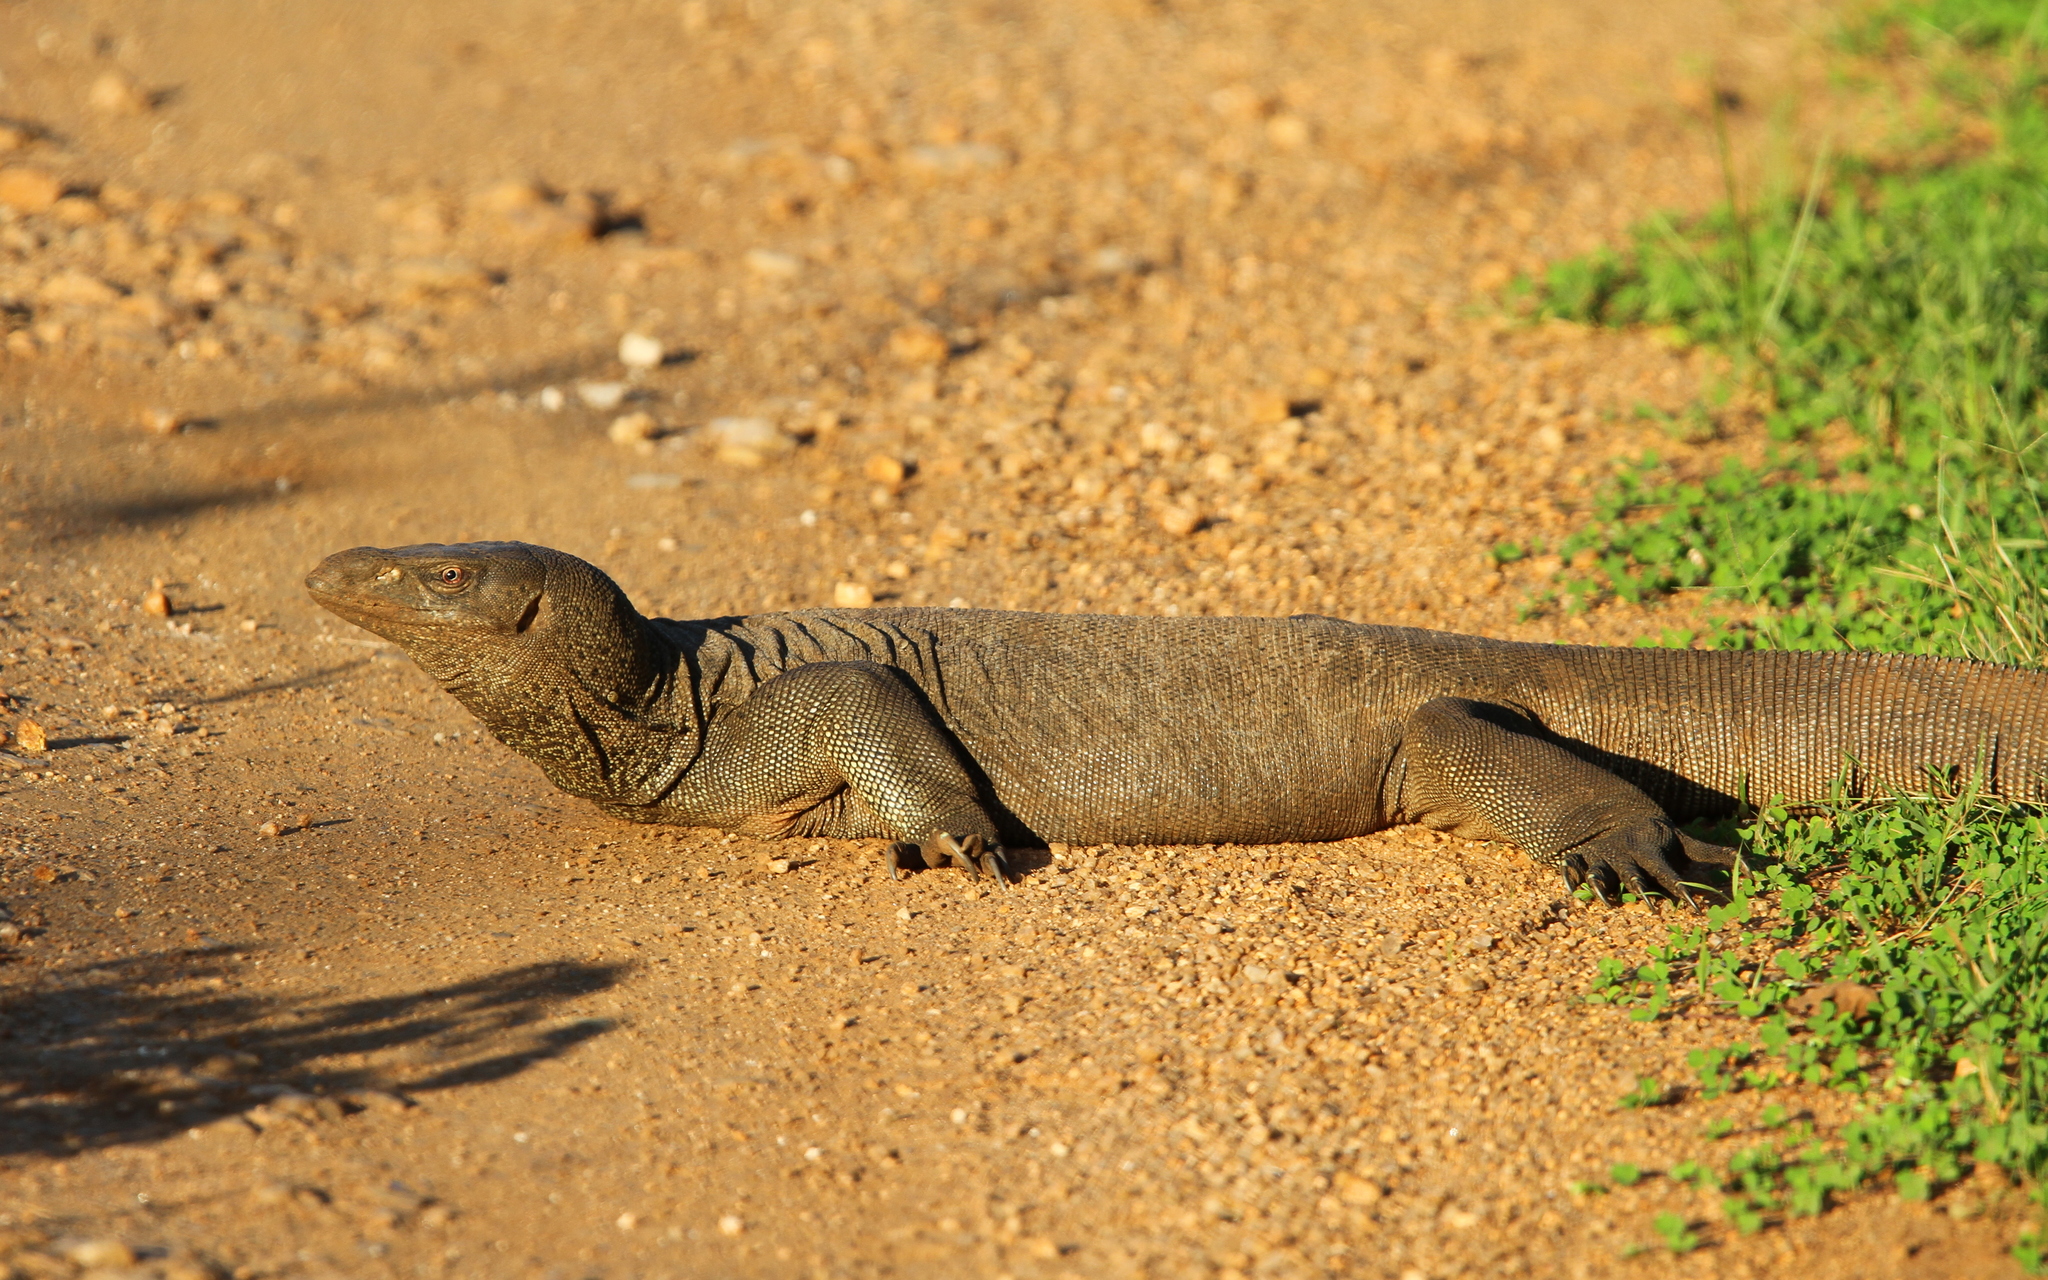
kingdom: Animalia
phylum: Chordata
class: Squamata
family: Varanidae
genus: Varanus
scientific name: Varanus bengalensis
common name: Bengal monitor
